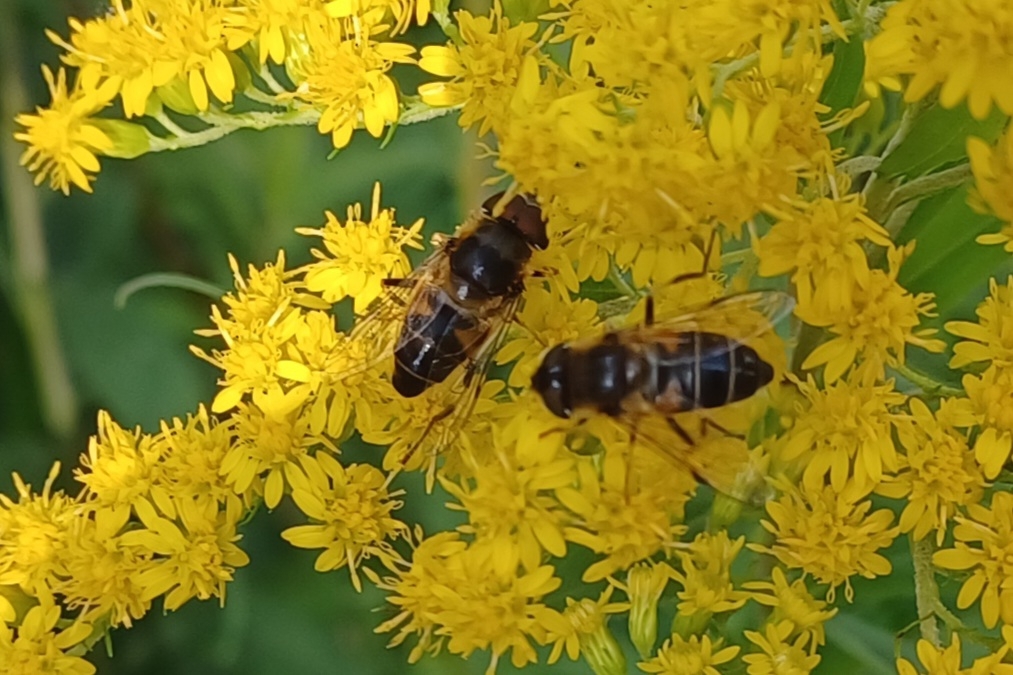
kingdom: Animalia
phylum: Arthropoda
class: Insecta
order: Diptera
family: Syrphidae
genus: Eristalis
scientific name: Eristalis pertinax
